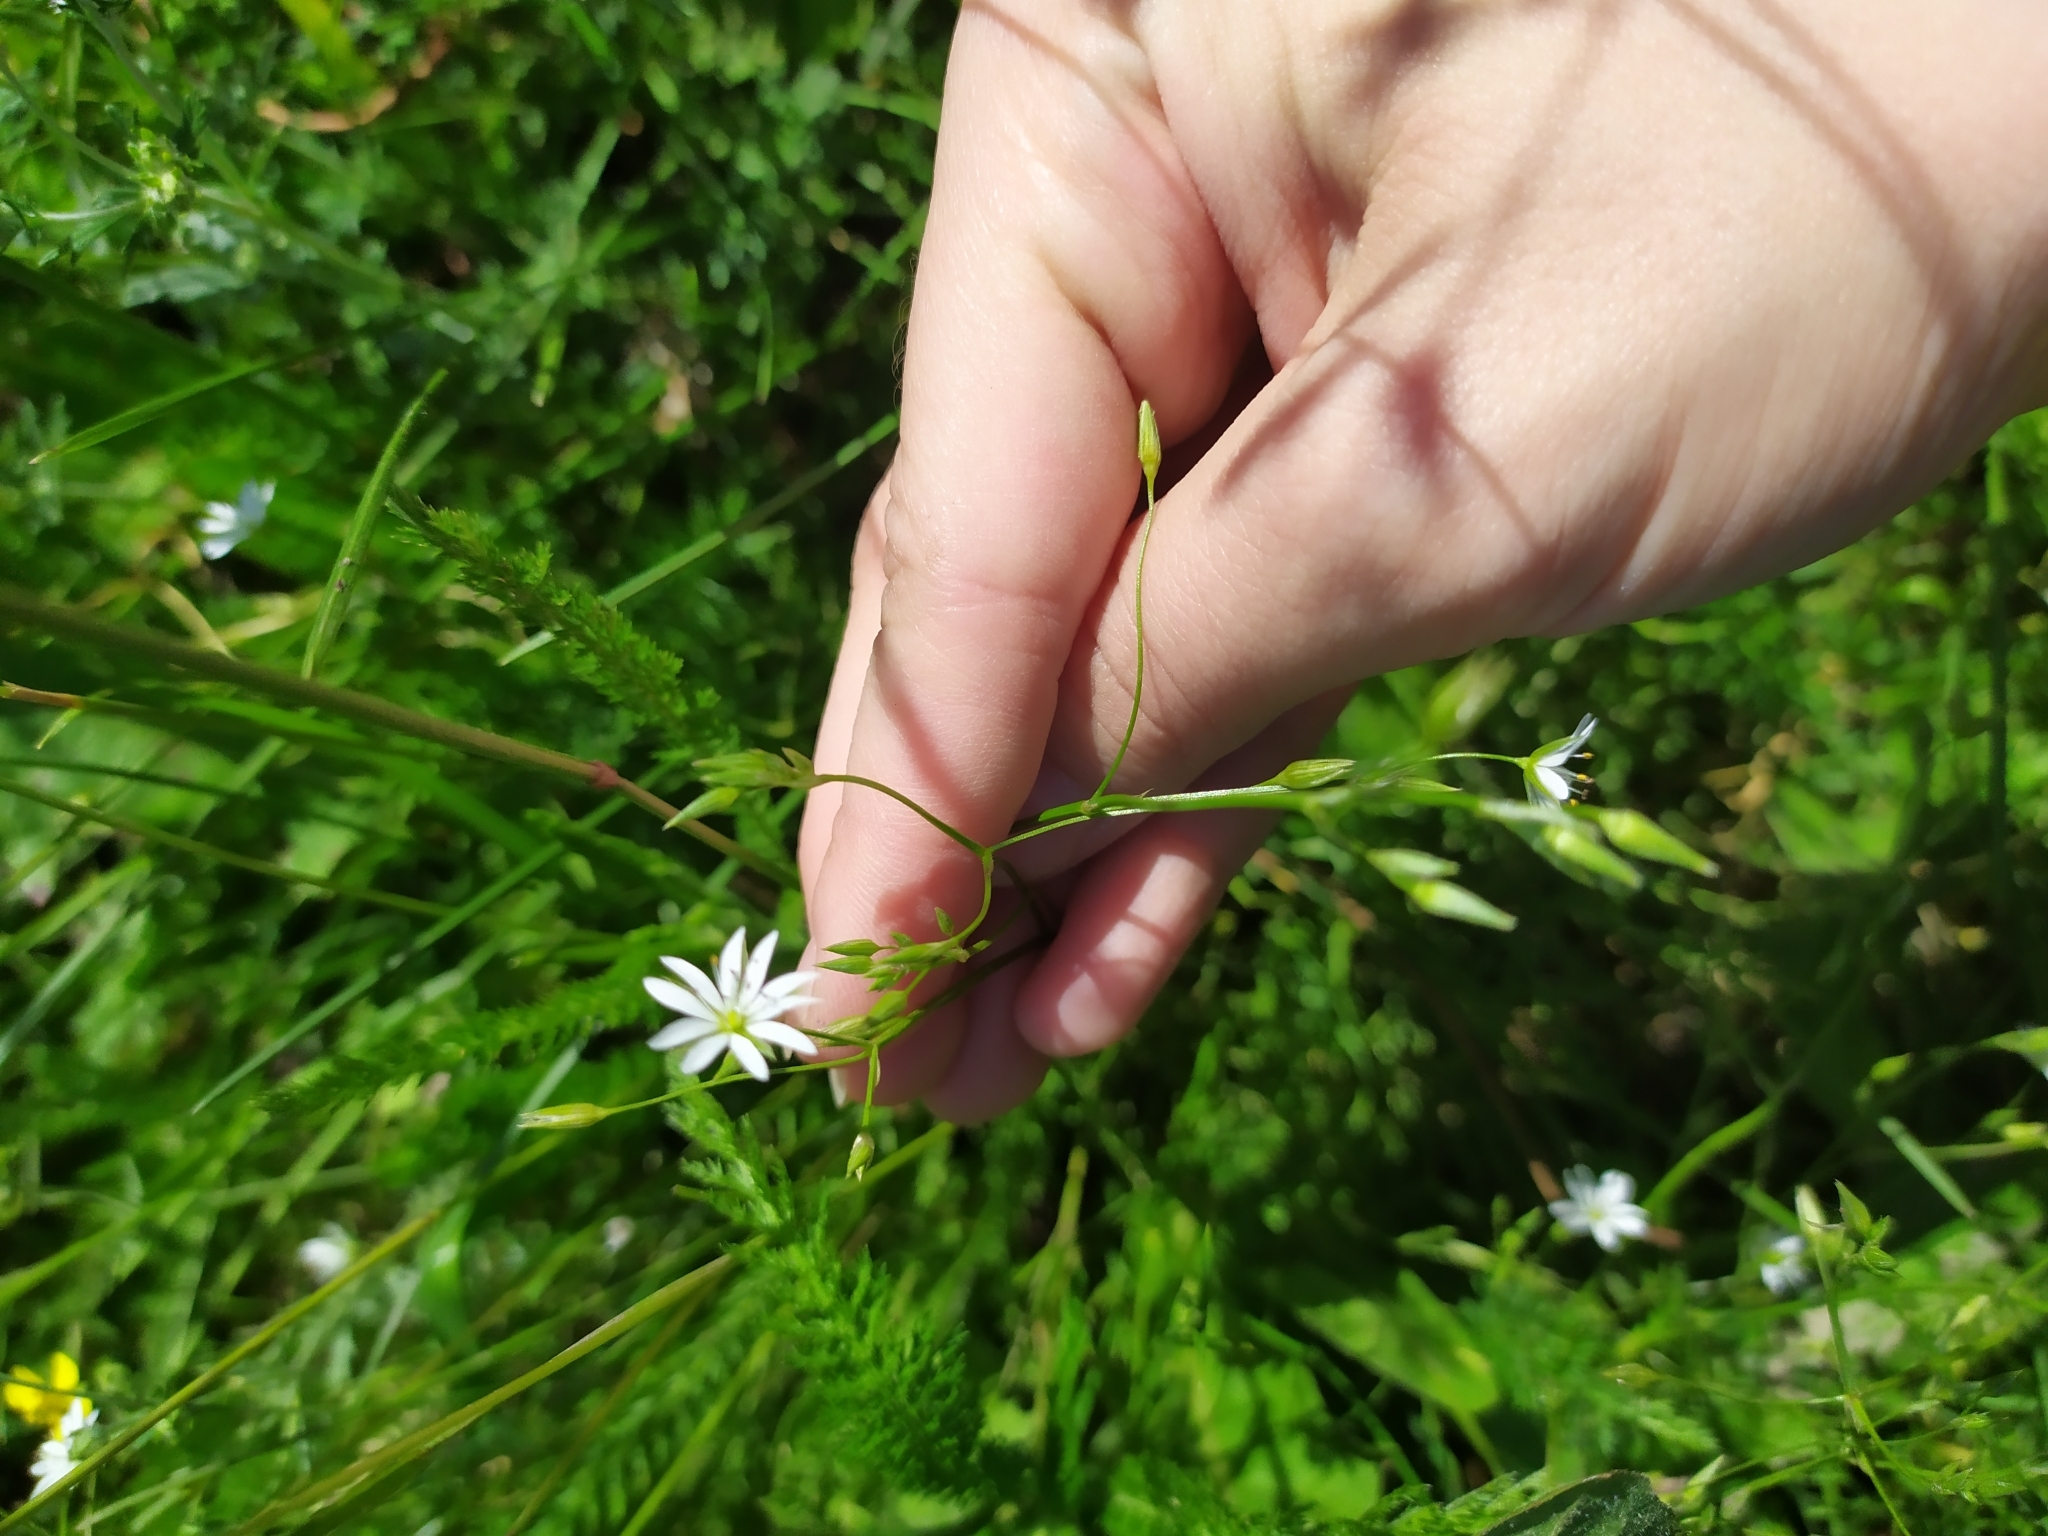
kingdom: Plantae
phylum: Tracheophyta
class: Magnoliopsida
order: Caryophyllales
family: Caryophyllaceae
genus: Stellaria
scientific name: Stellaria graminea
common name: Grass-like starwort
